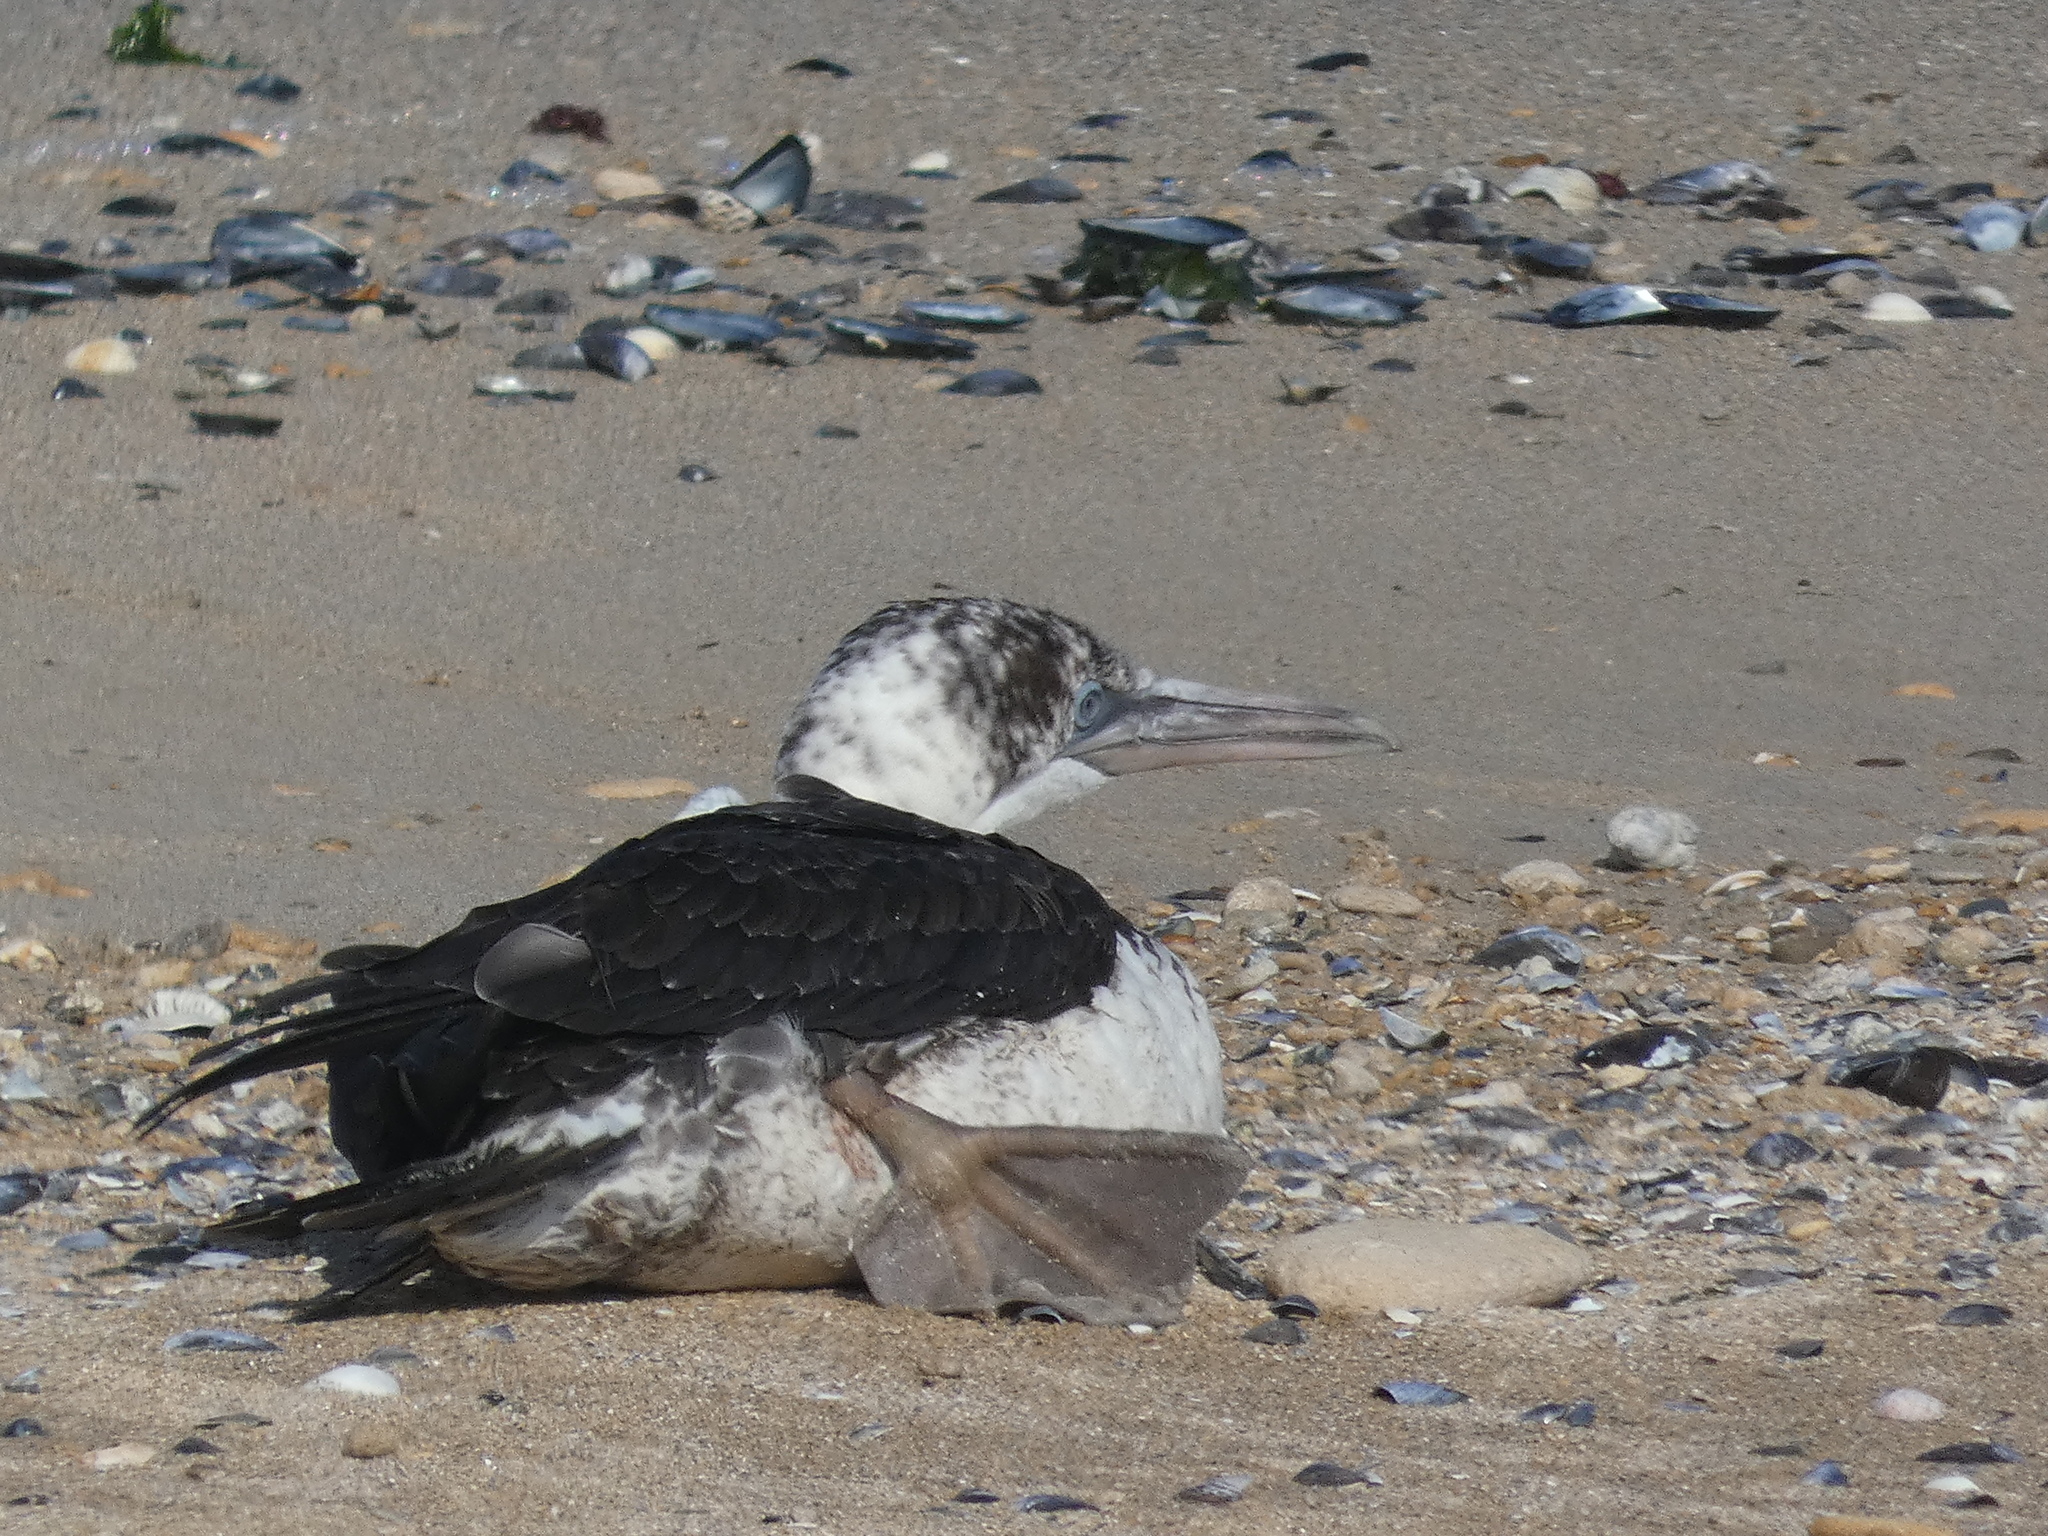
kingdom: Animalia
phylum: Chordata
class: Aves
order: Suliformes
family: Sulidae
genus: Morus
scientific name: Morus bassanus
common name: Northern gannet
